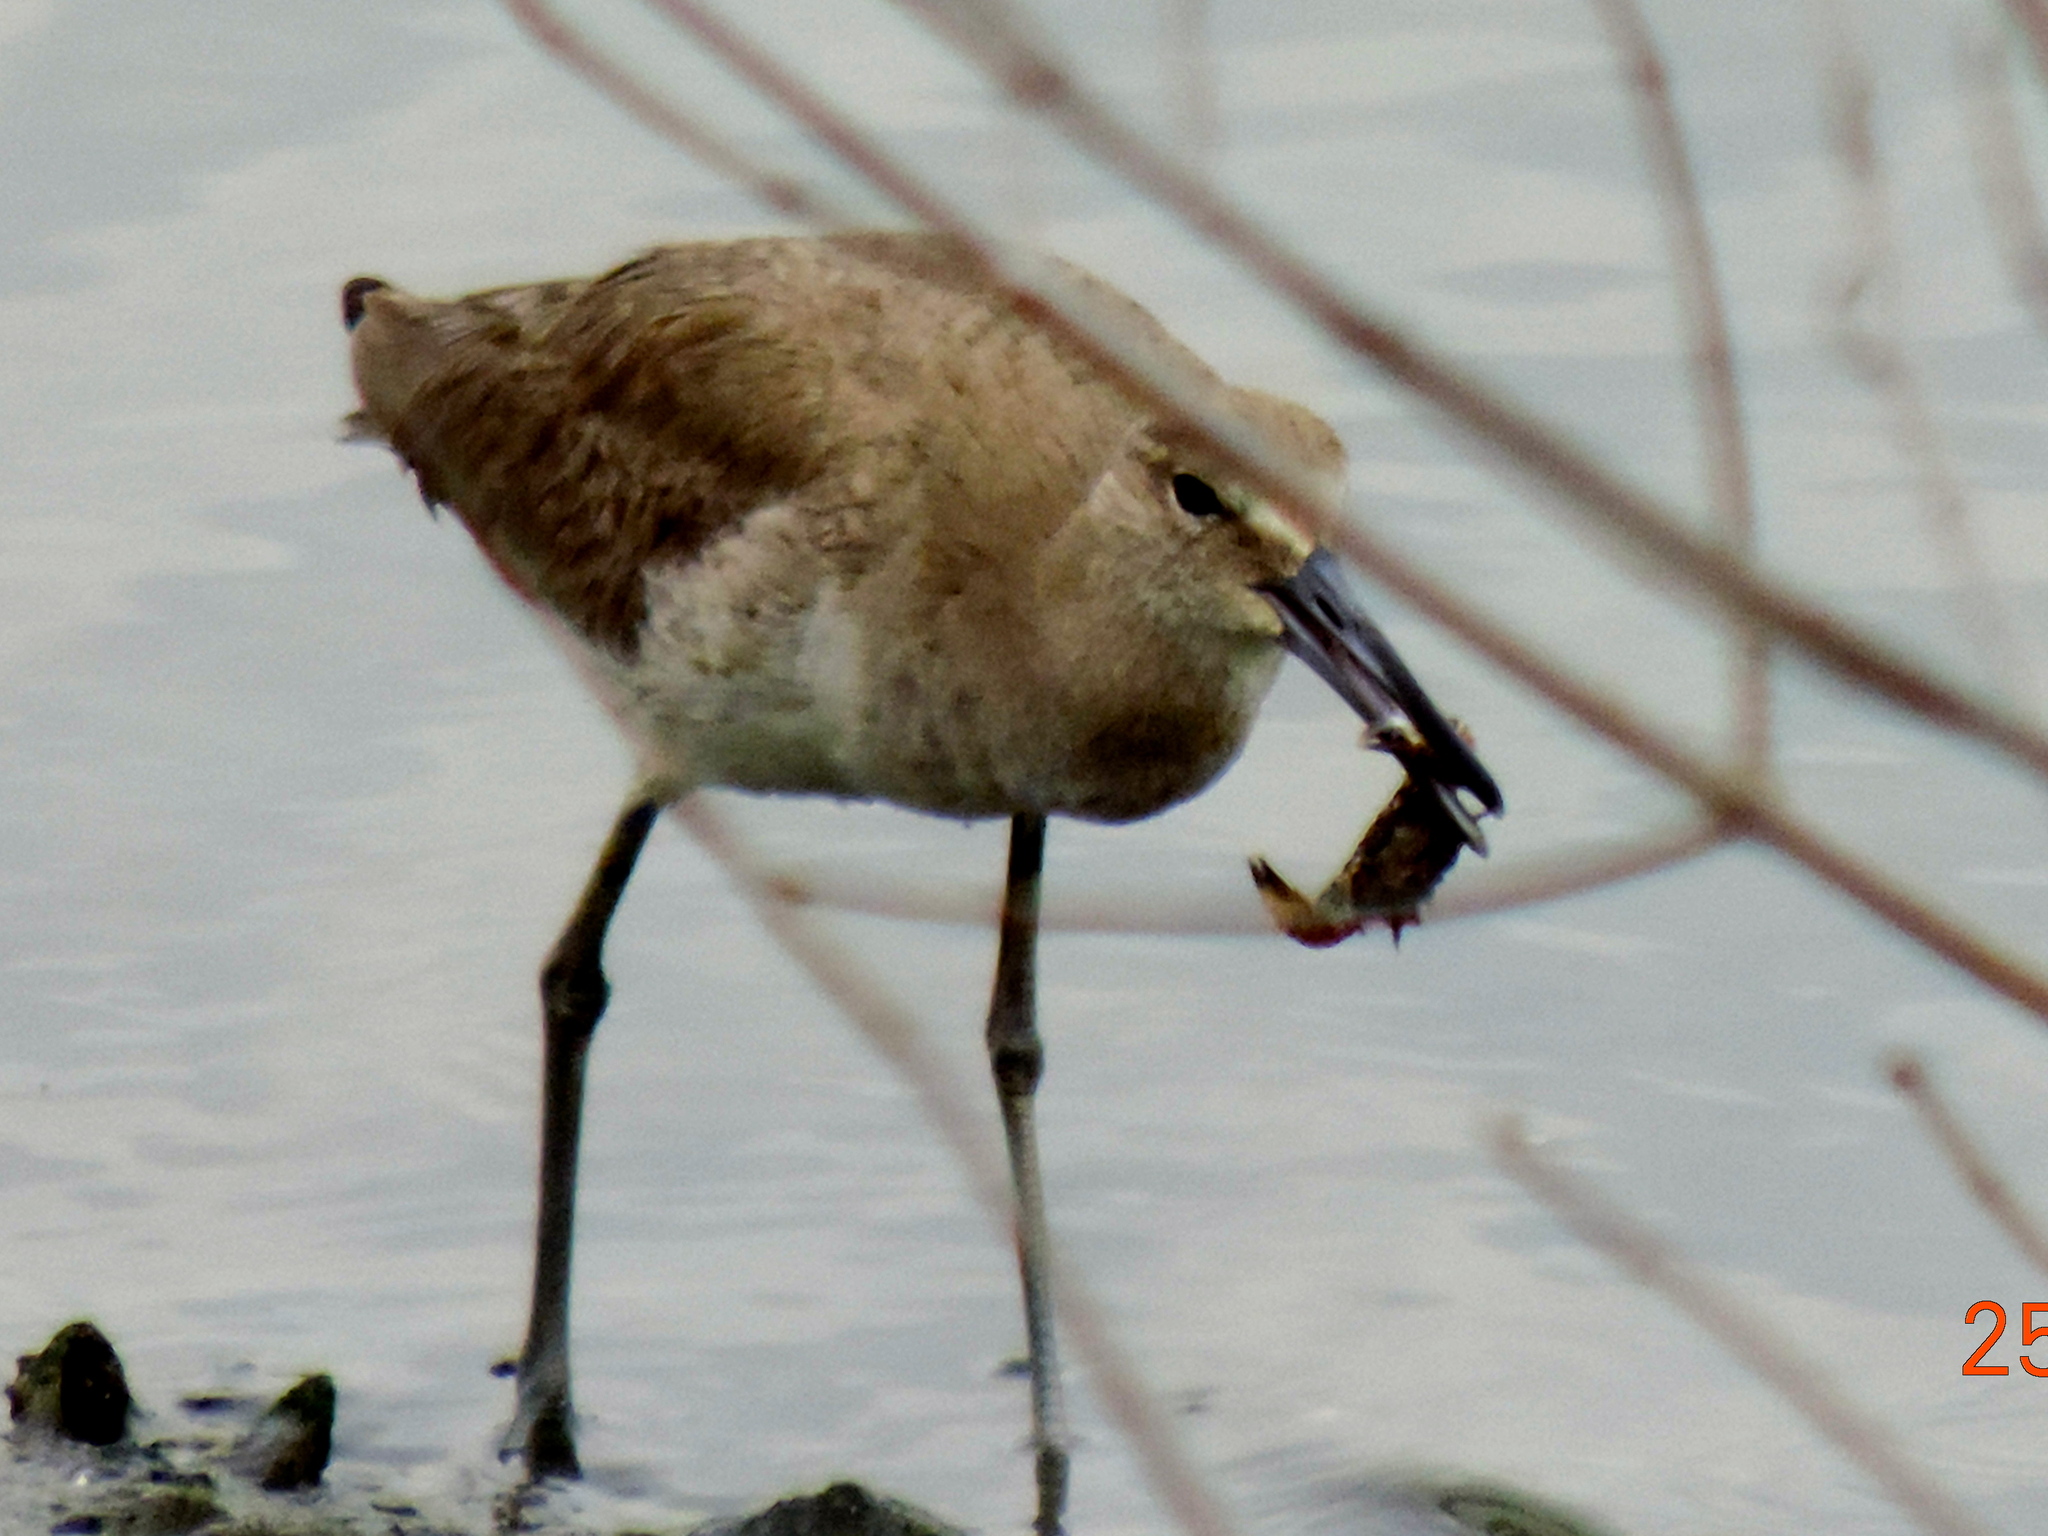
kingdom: Animalia
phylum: Chordata
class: Aves
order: Charadriiformes
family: Scolopacidae
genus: Tringa
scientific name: Tringa semipalmata
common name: Willet
